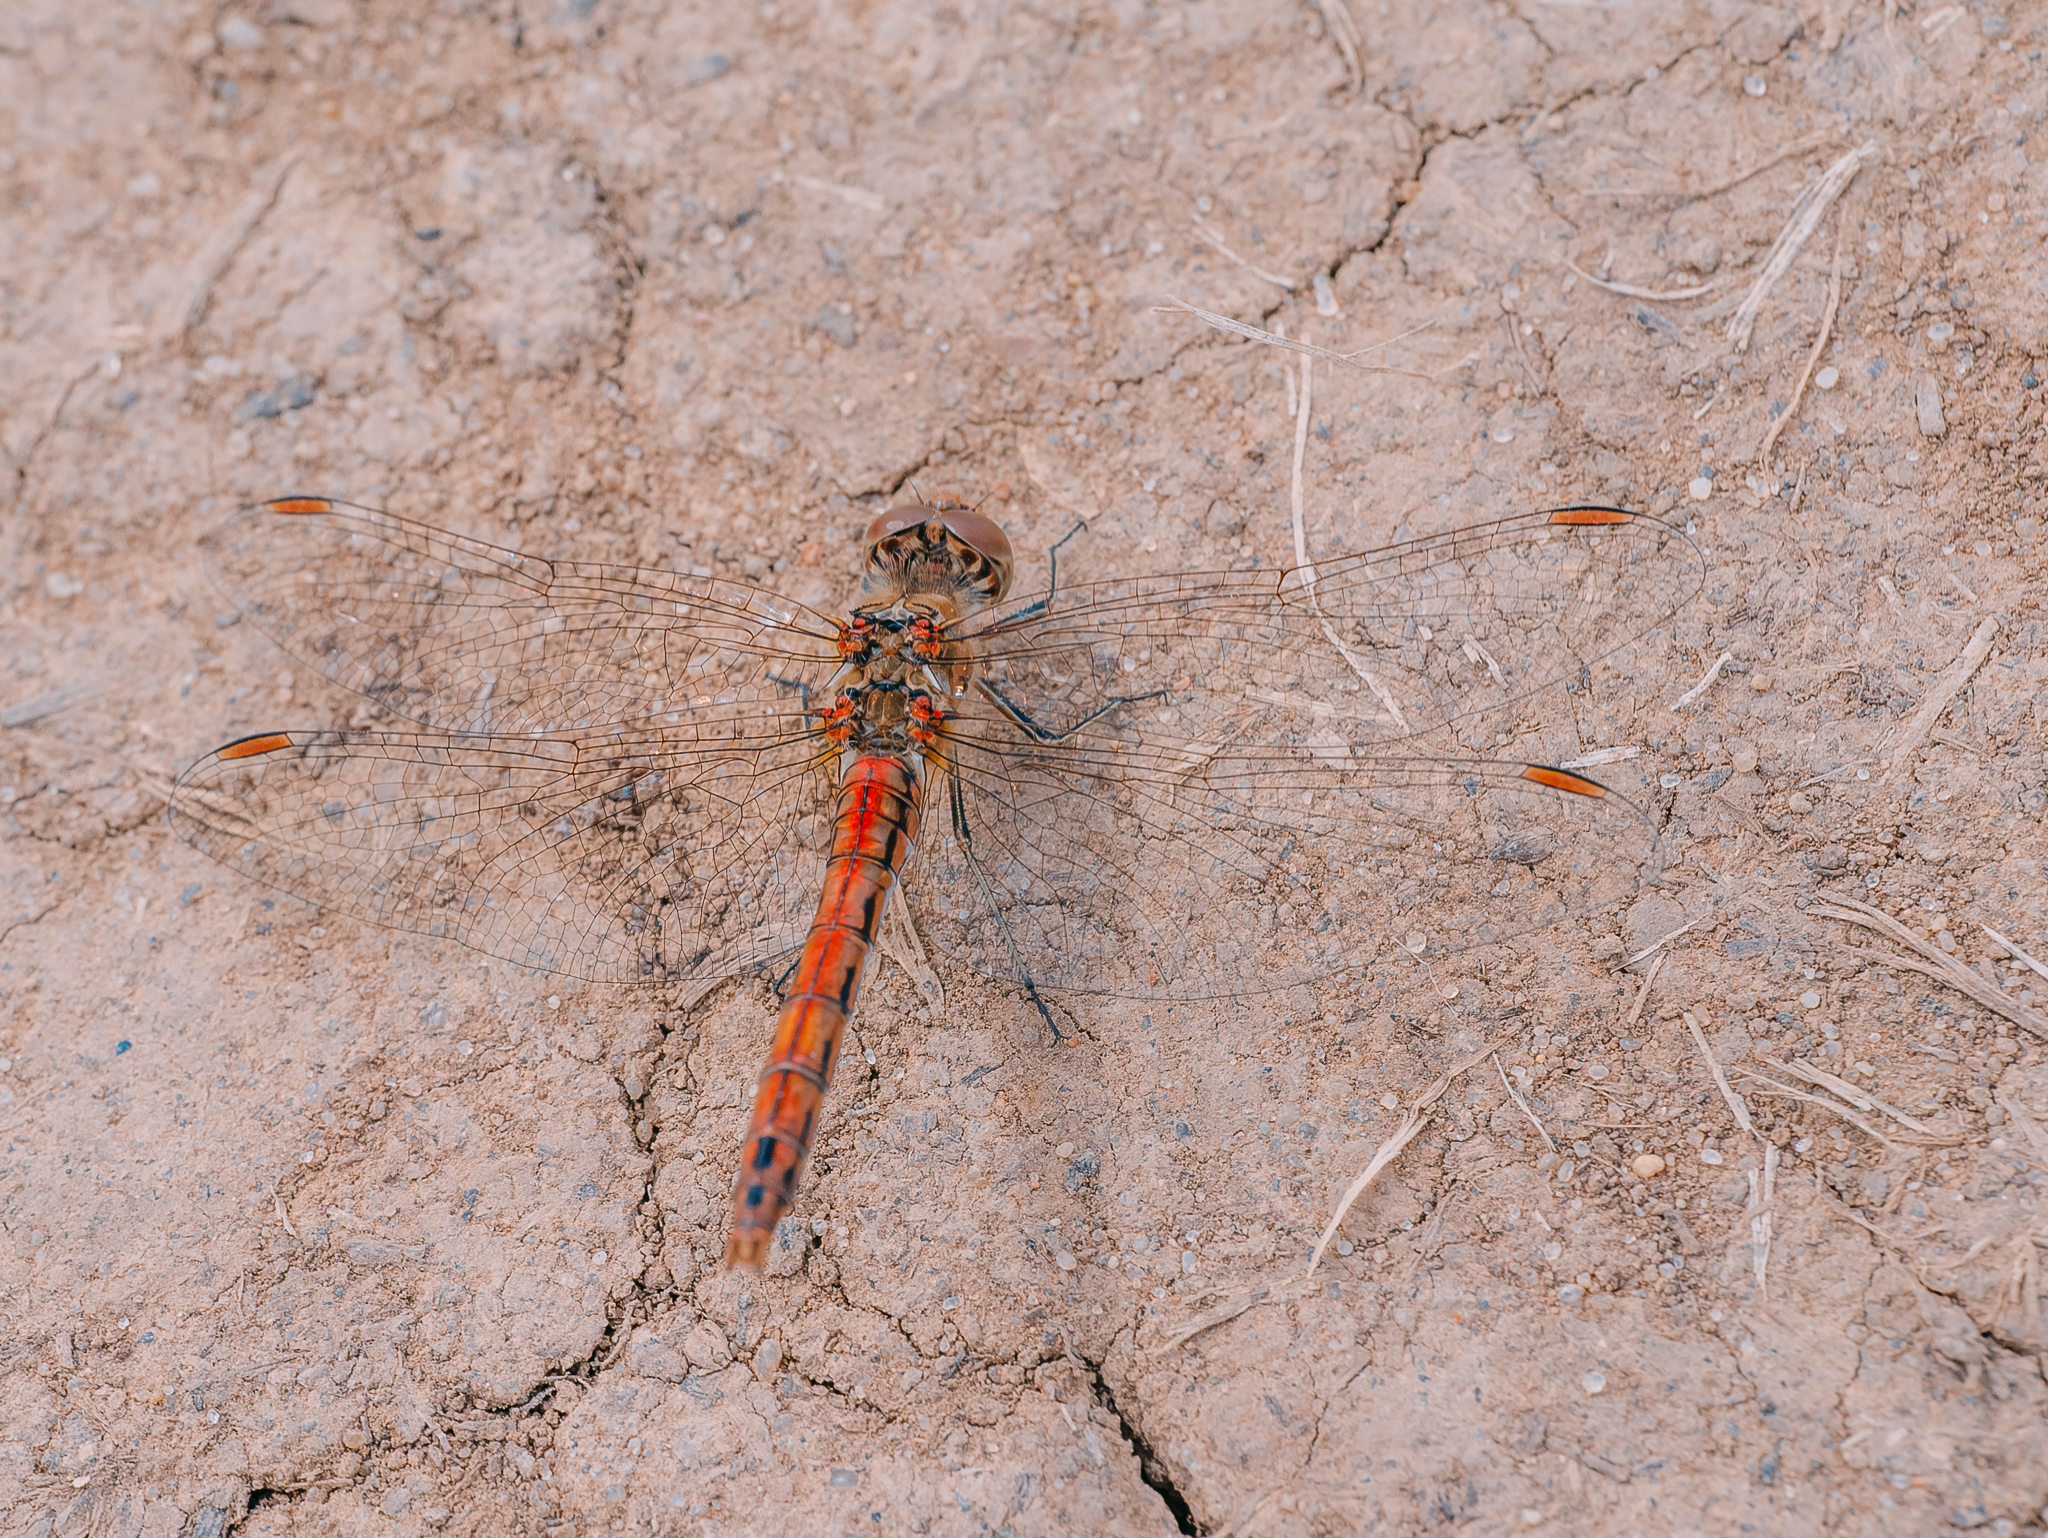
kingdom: Animalia
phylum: Arthropoda
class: Insecta
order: Odonata
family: Libellulidae
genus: Sympetrum
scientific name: Sympetrum vulgatum
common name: Vagrant darter
